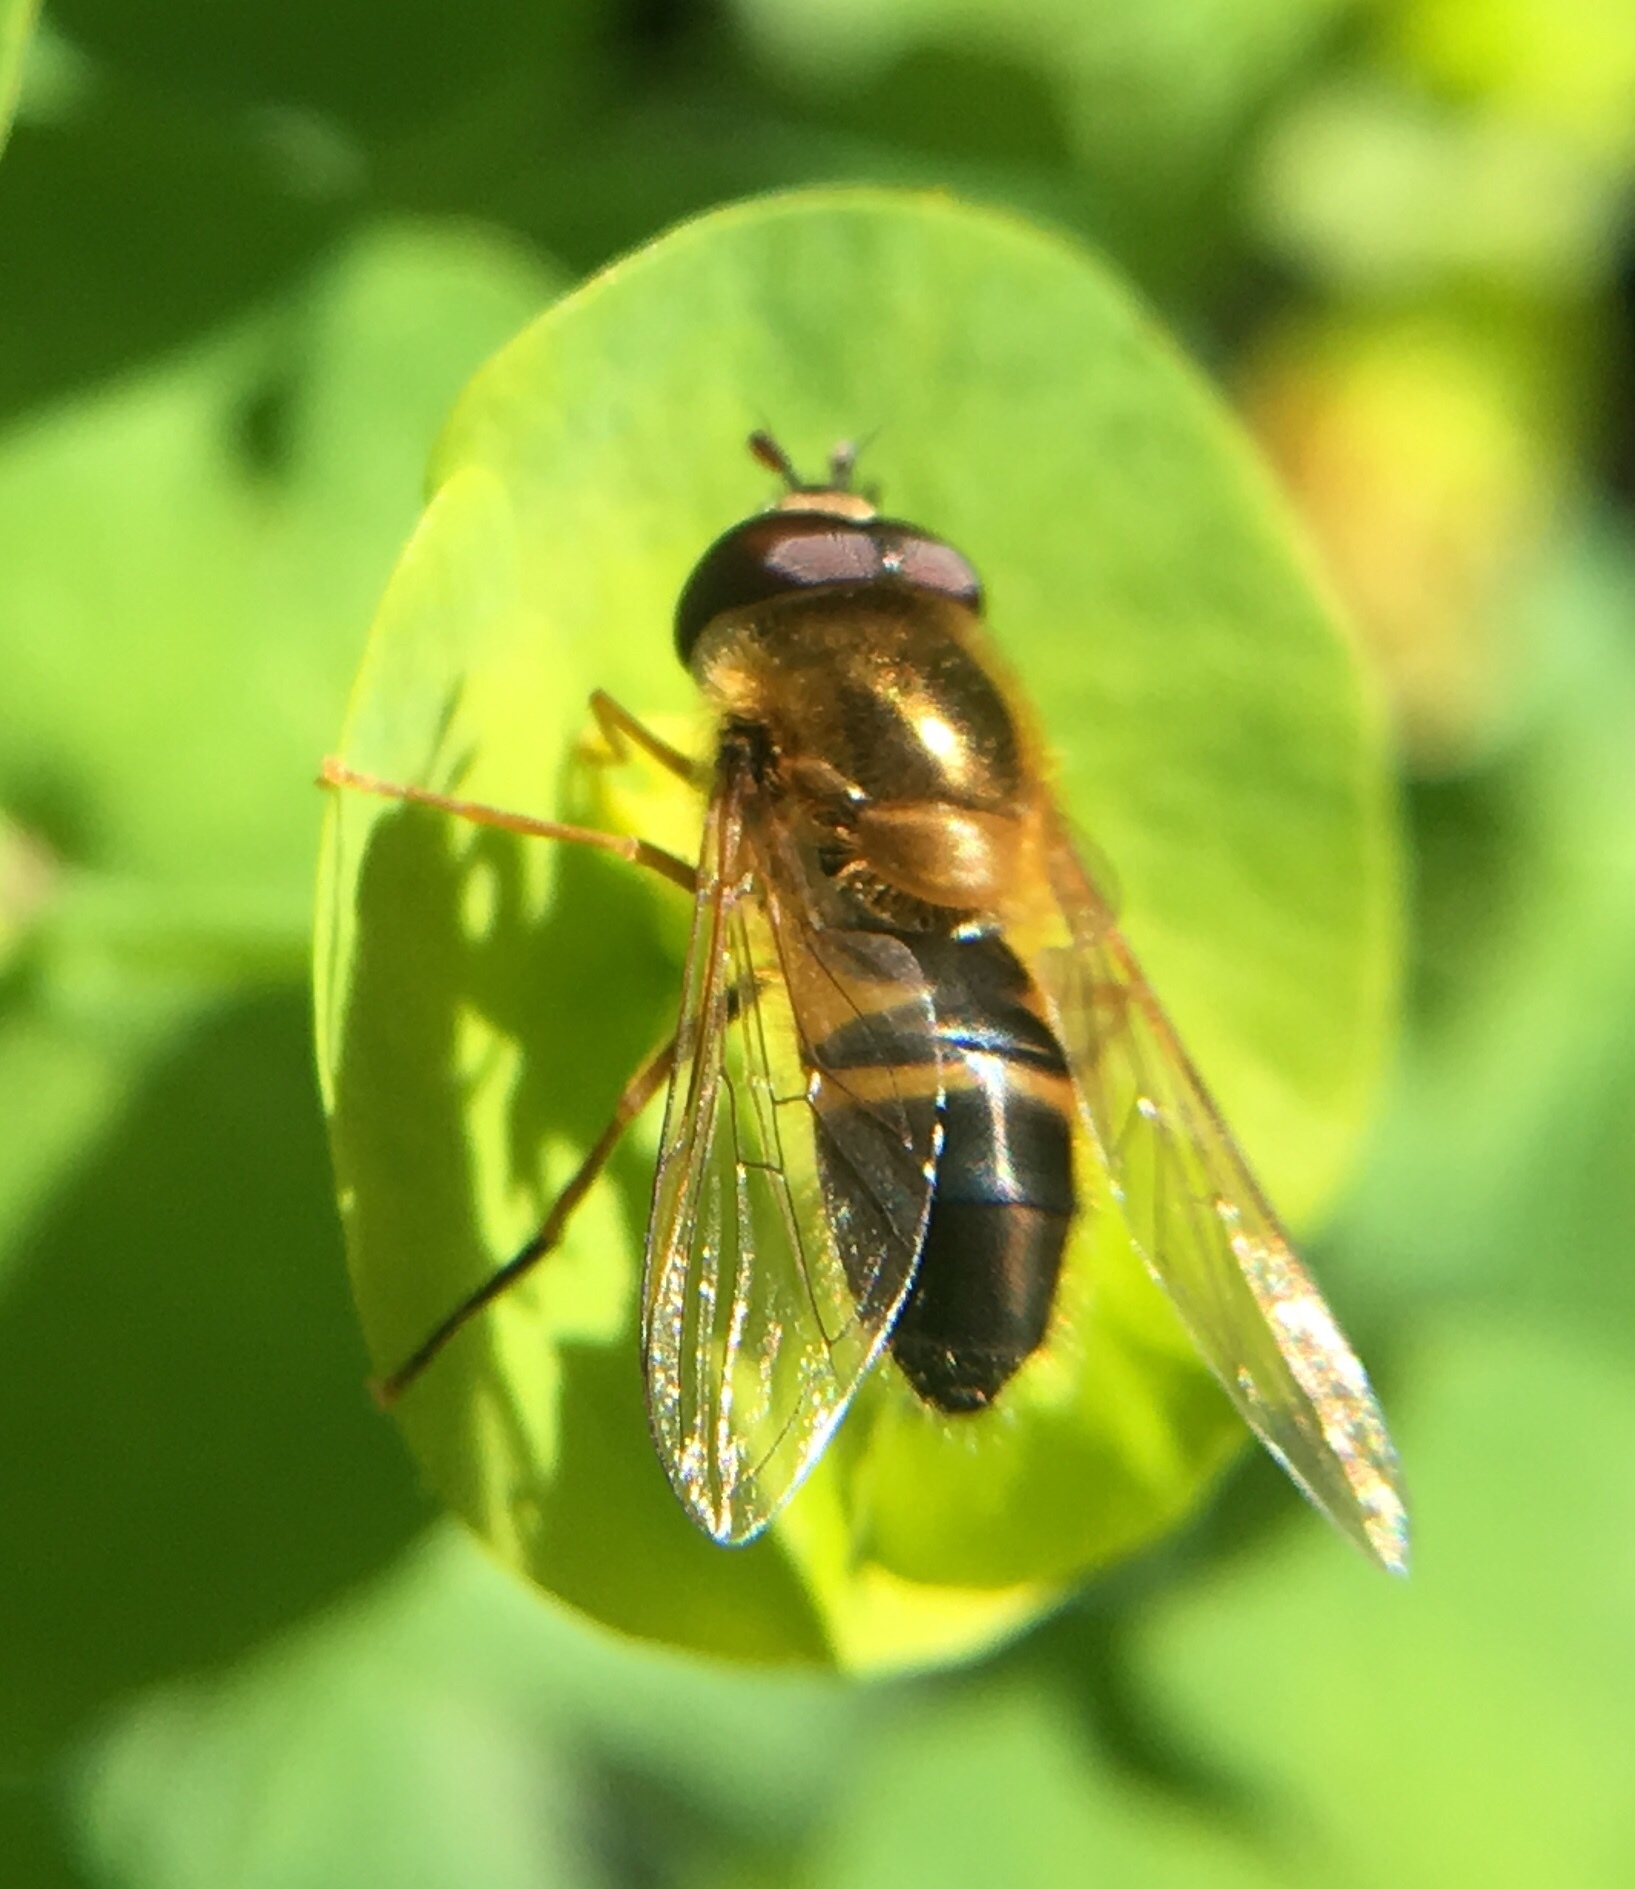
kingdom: Animalia
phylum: Arthropoda
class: Insecta
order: Diptera
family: Syrphidae
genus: Epistrophe
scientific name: Epistrophe eligans
